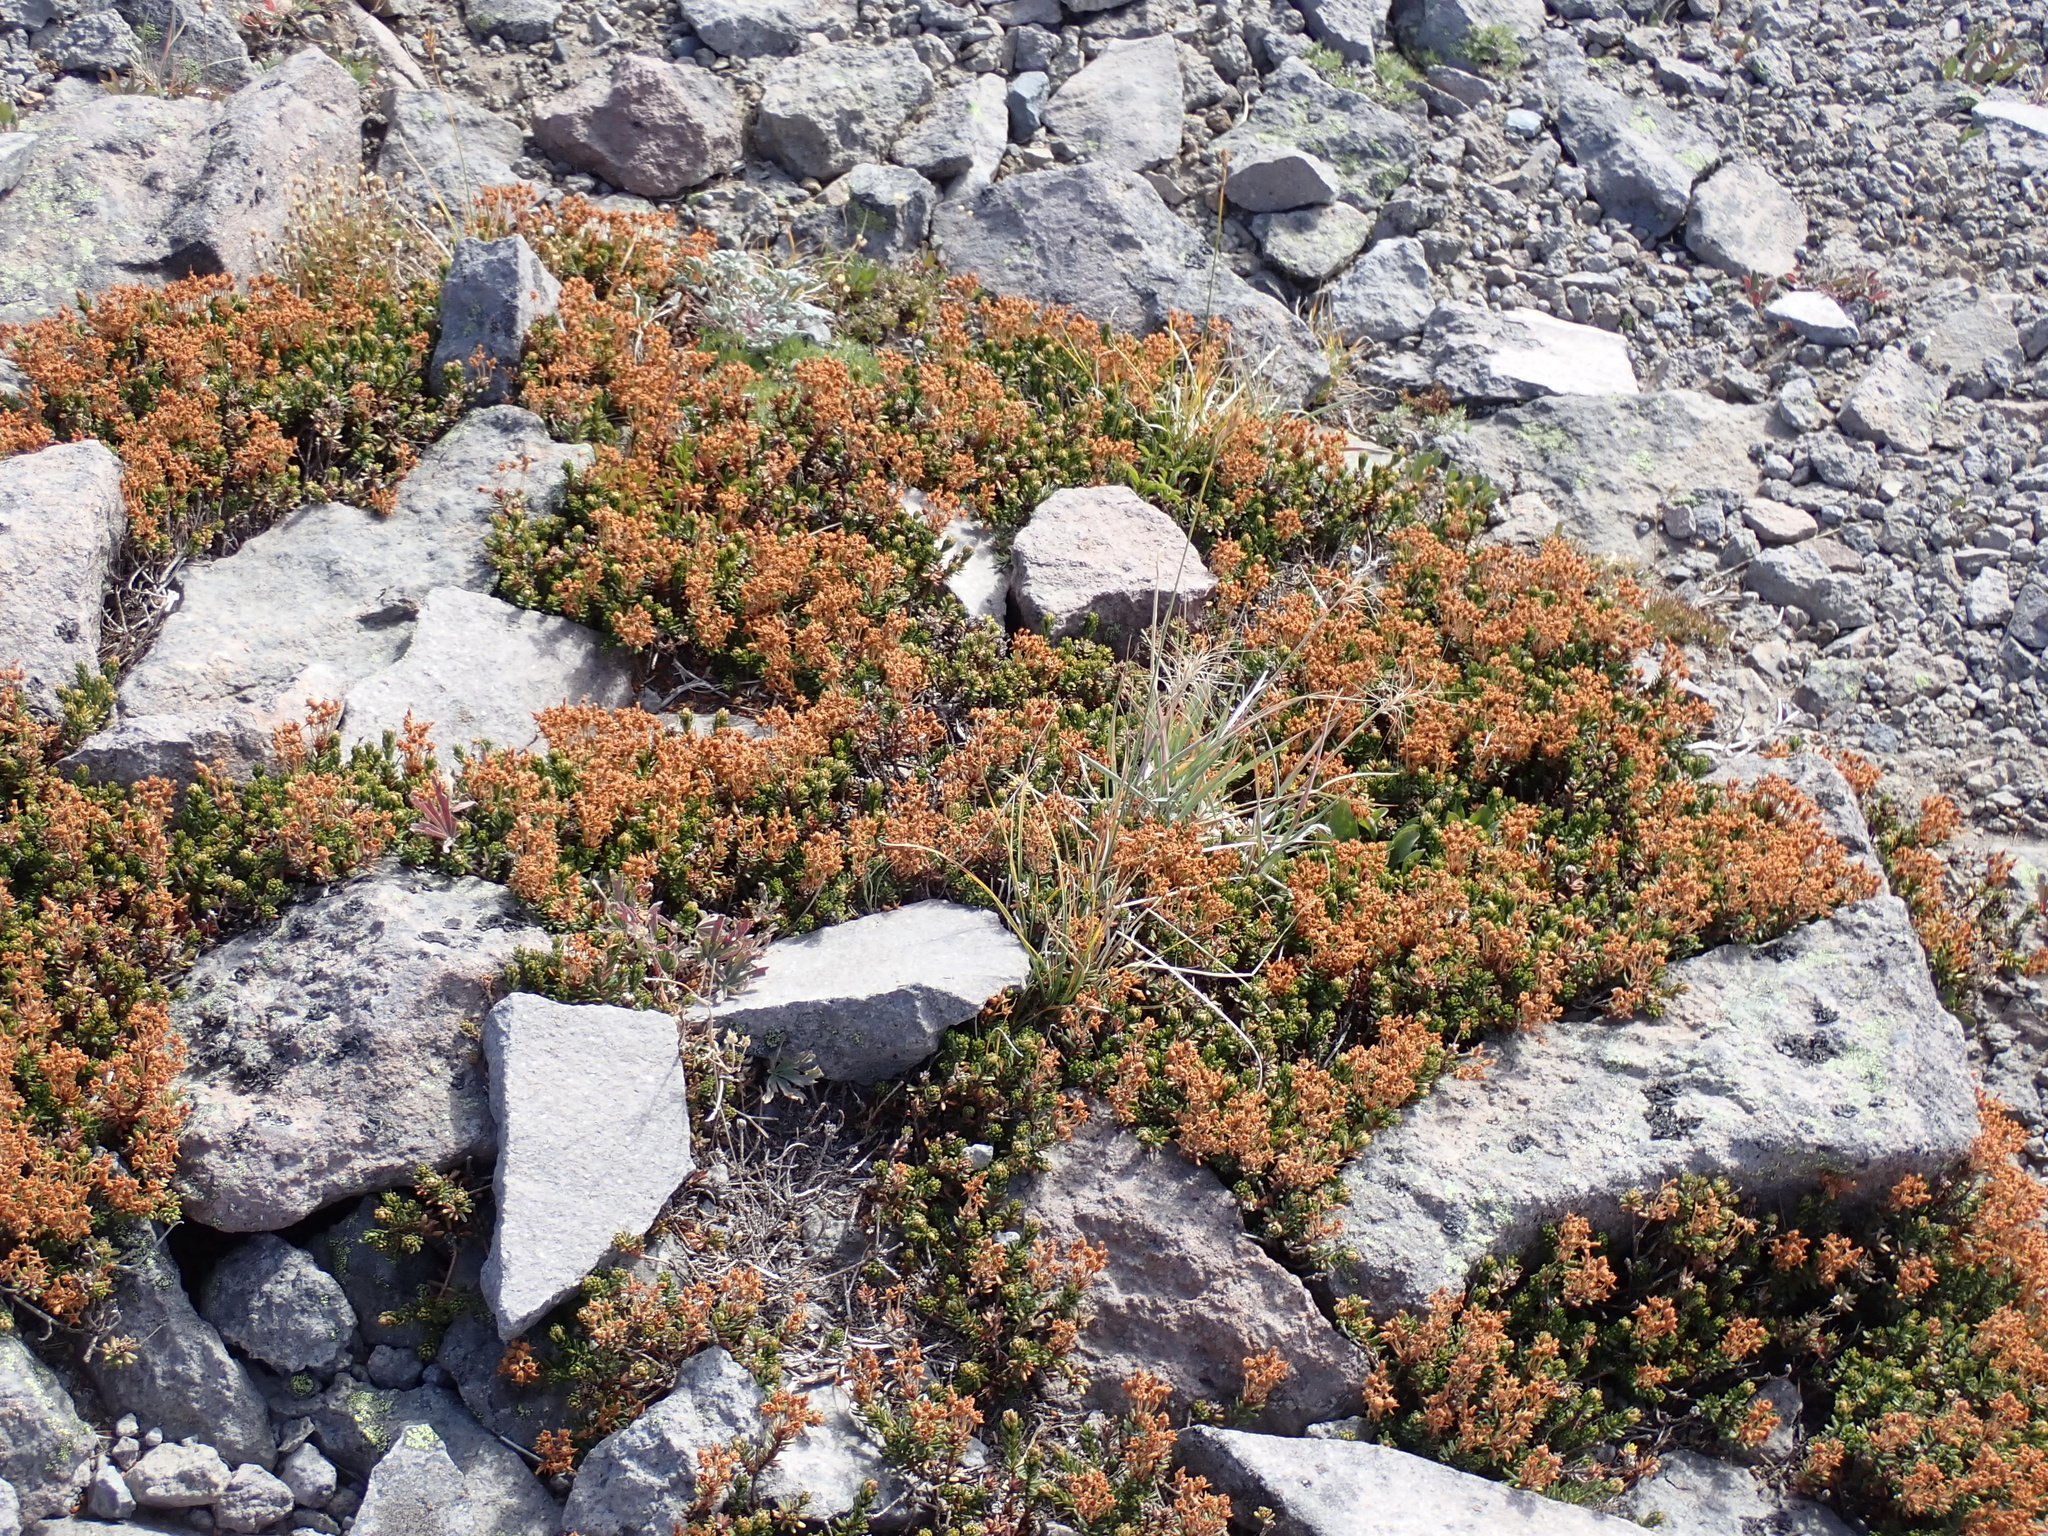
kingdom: Plantae
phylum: Tracheophyta
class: Magnoliopsida
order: Ericales
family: Ericaceae
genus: Phyllodoce
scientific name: Phyllodoce glanduliflora
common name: Cream mountain heather
